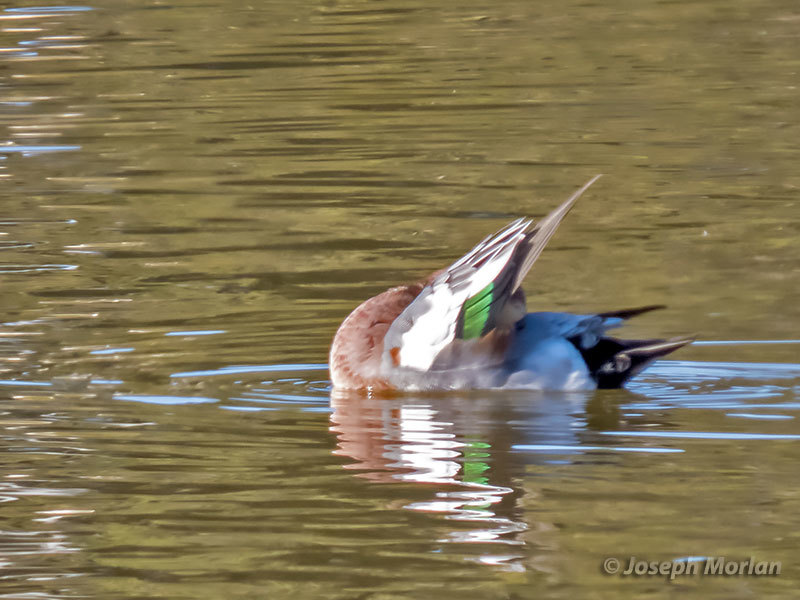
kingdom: Animalia
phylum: Chordata
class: Aves
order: Anseriformes
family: Anatidae
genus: Mareca
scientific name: Mareca penelope
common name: Eurasian wigeon
